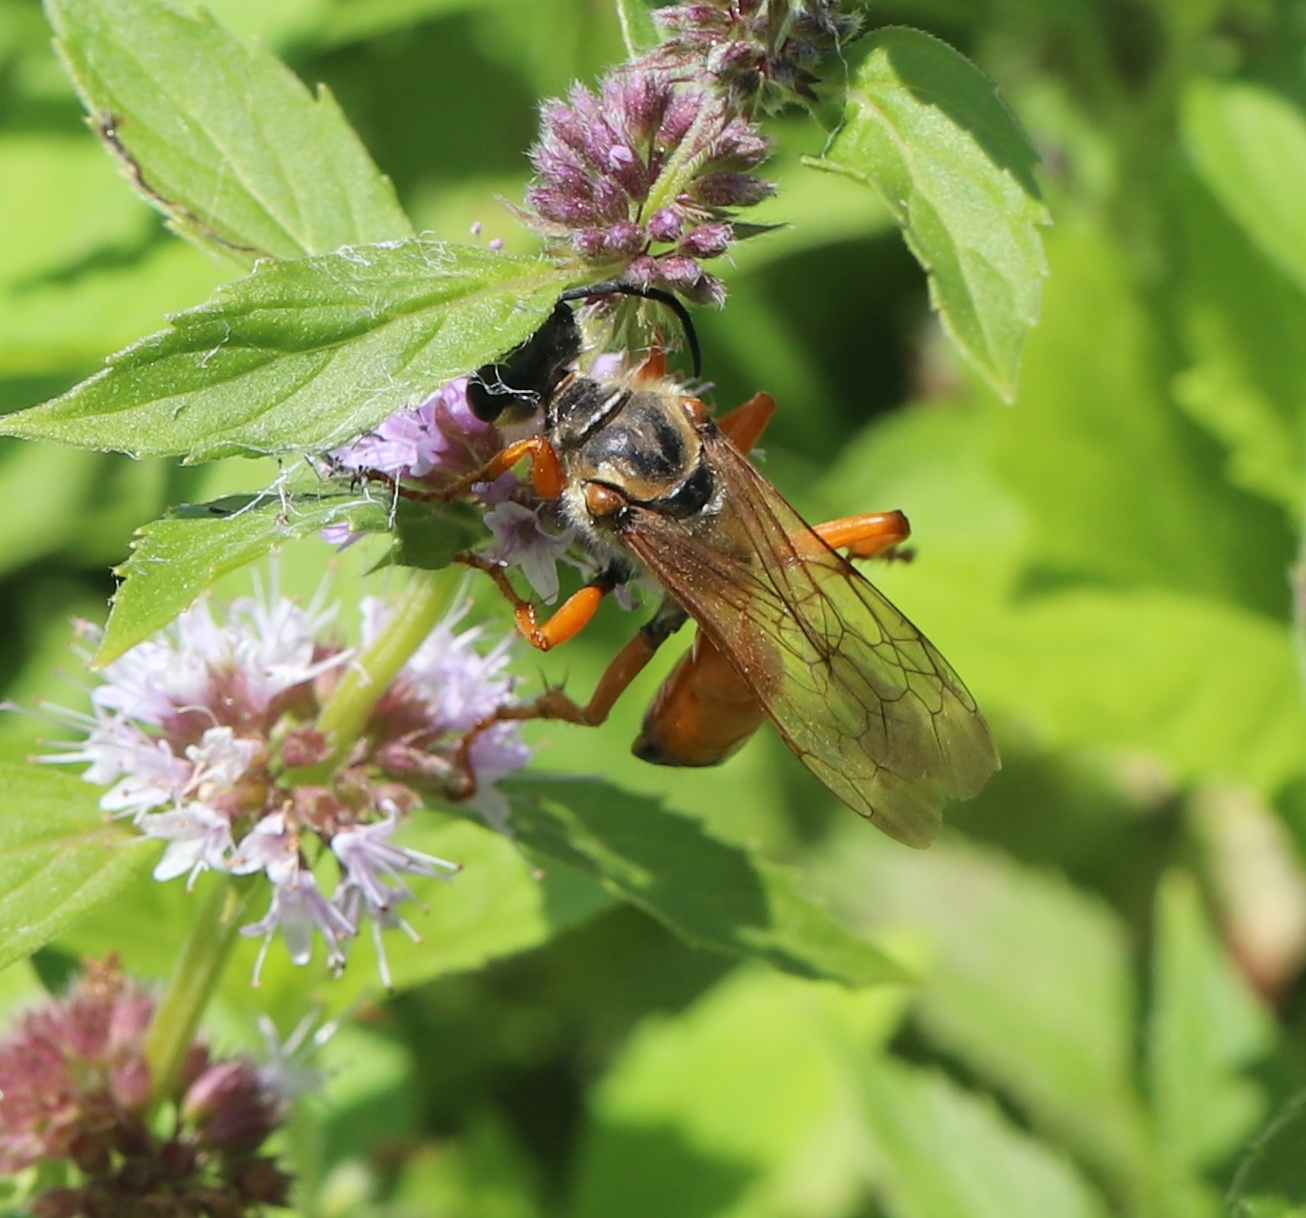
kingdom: Animalia
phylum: Arthropoda
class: Insecta
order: Hymenoptera
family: Sphecidae
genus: Sphex
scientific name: Sphex ichneumoneus
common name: Great golden digger wasp
